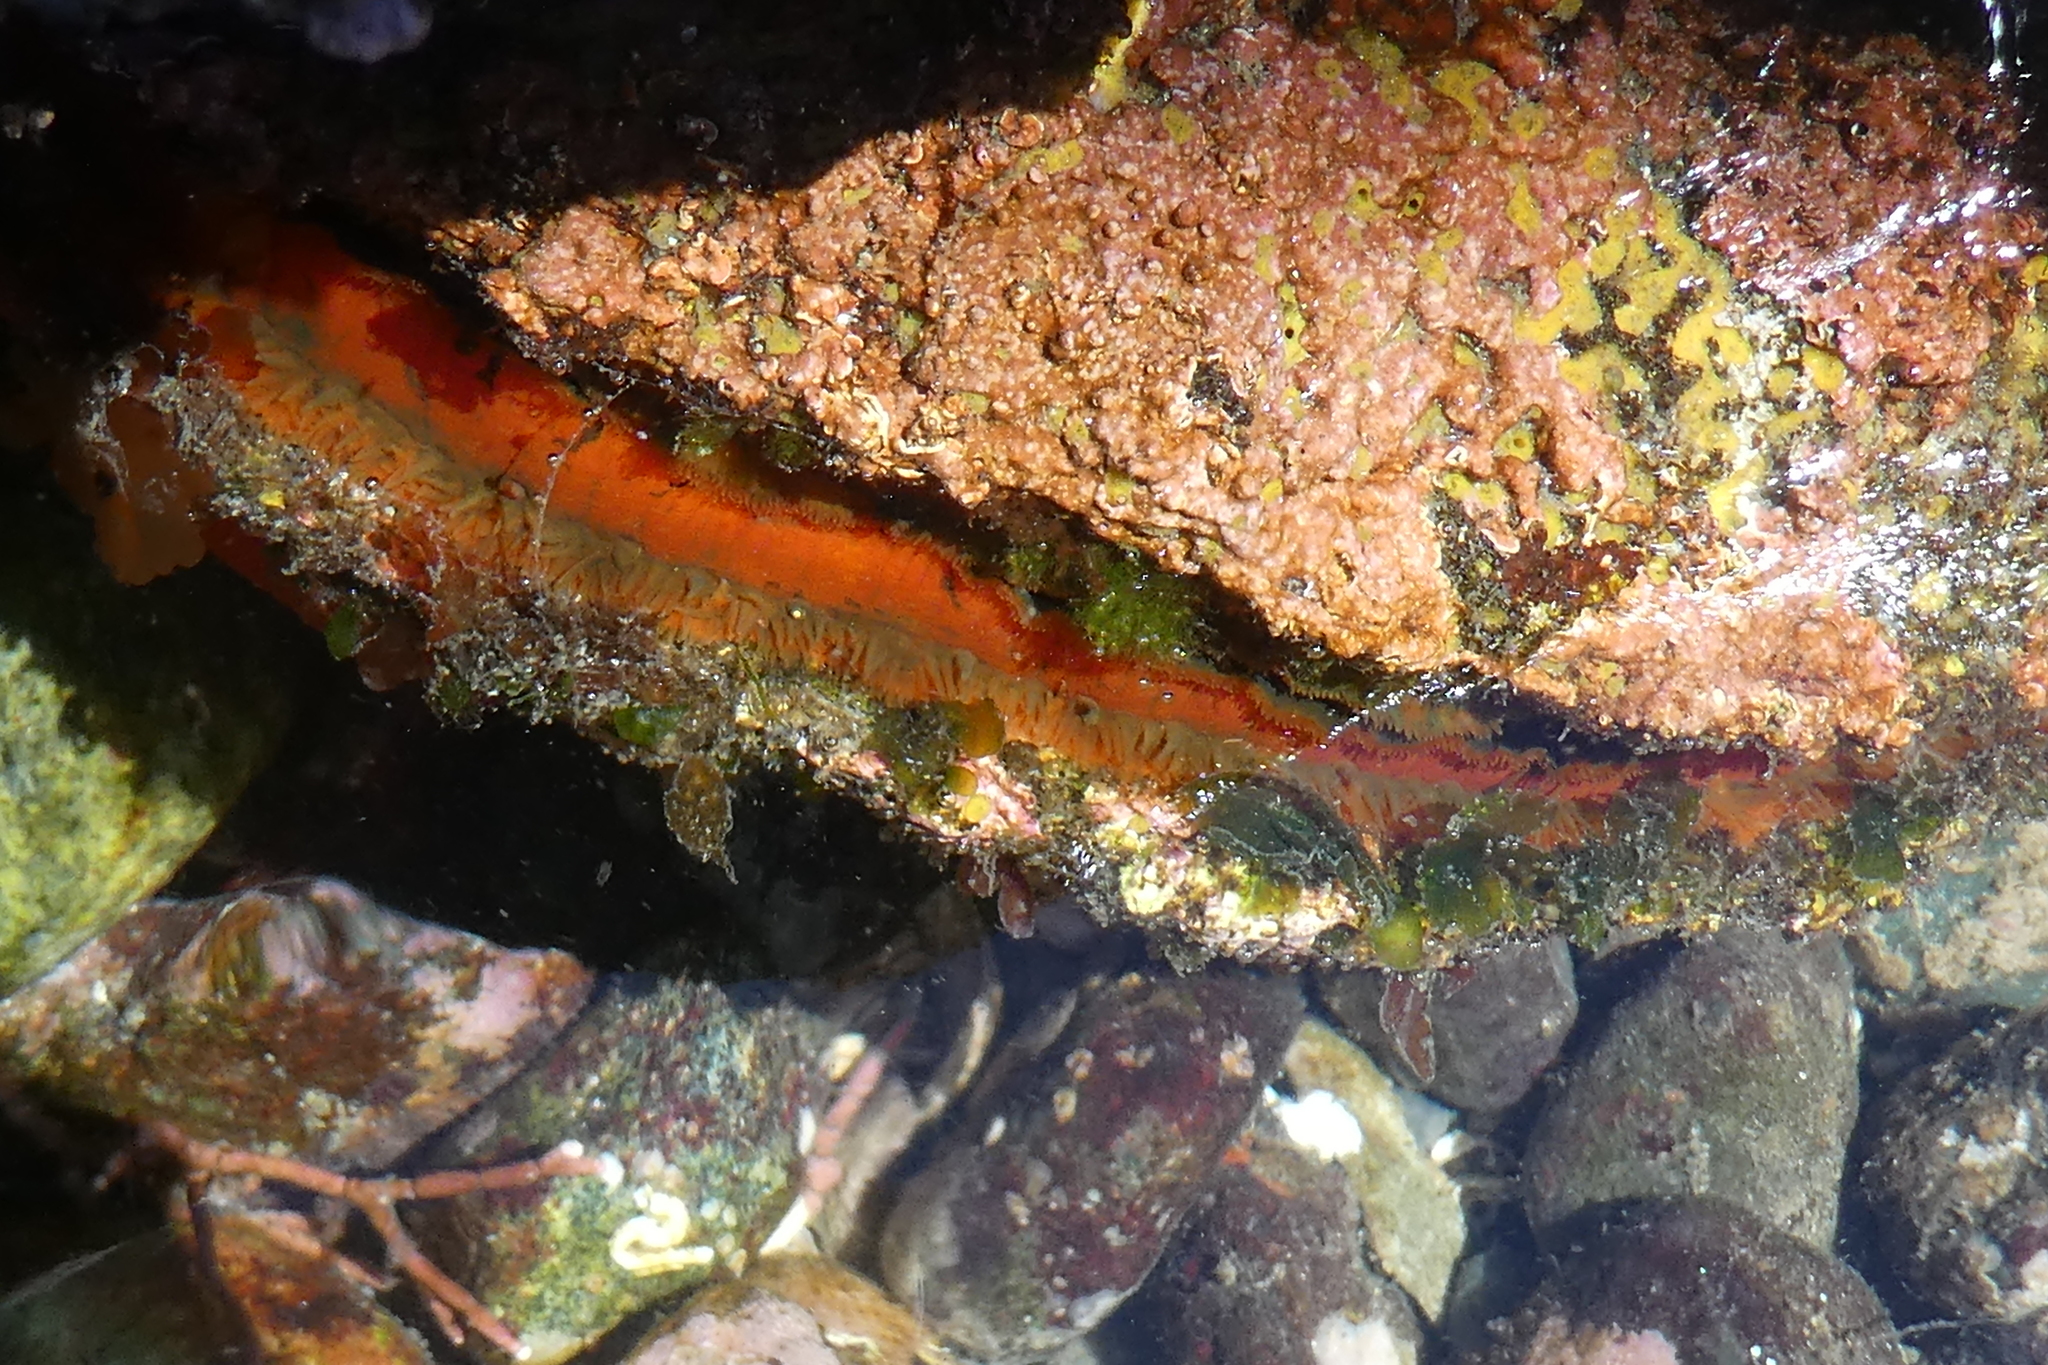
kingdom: Animalia
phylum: Mollusca
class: Bivalvia
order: Pectinida
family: Pectinidae
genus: Crassadoma
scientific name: Crassadoma gigantea
